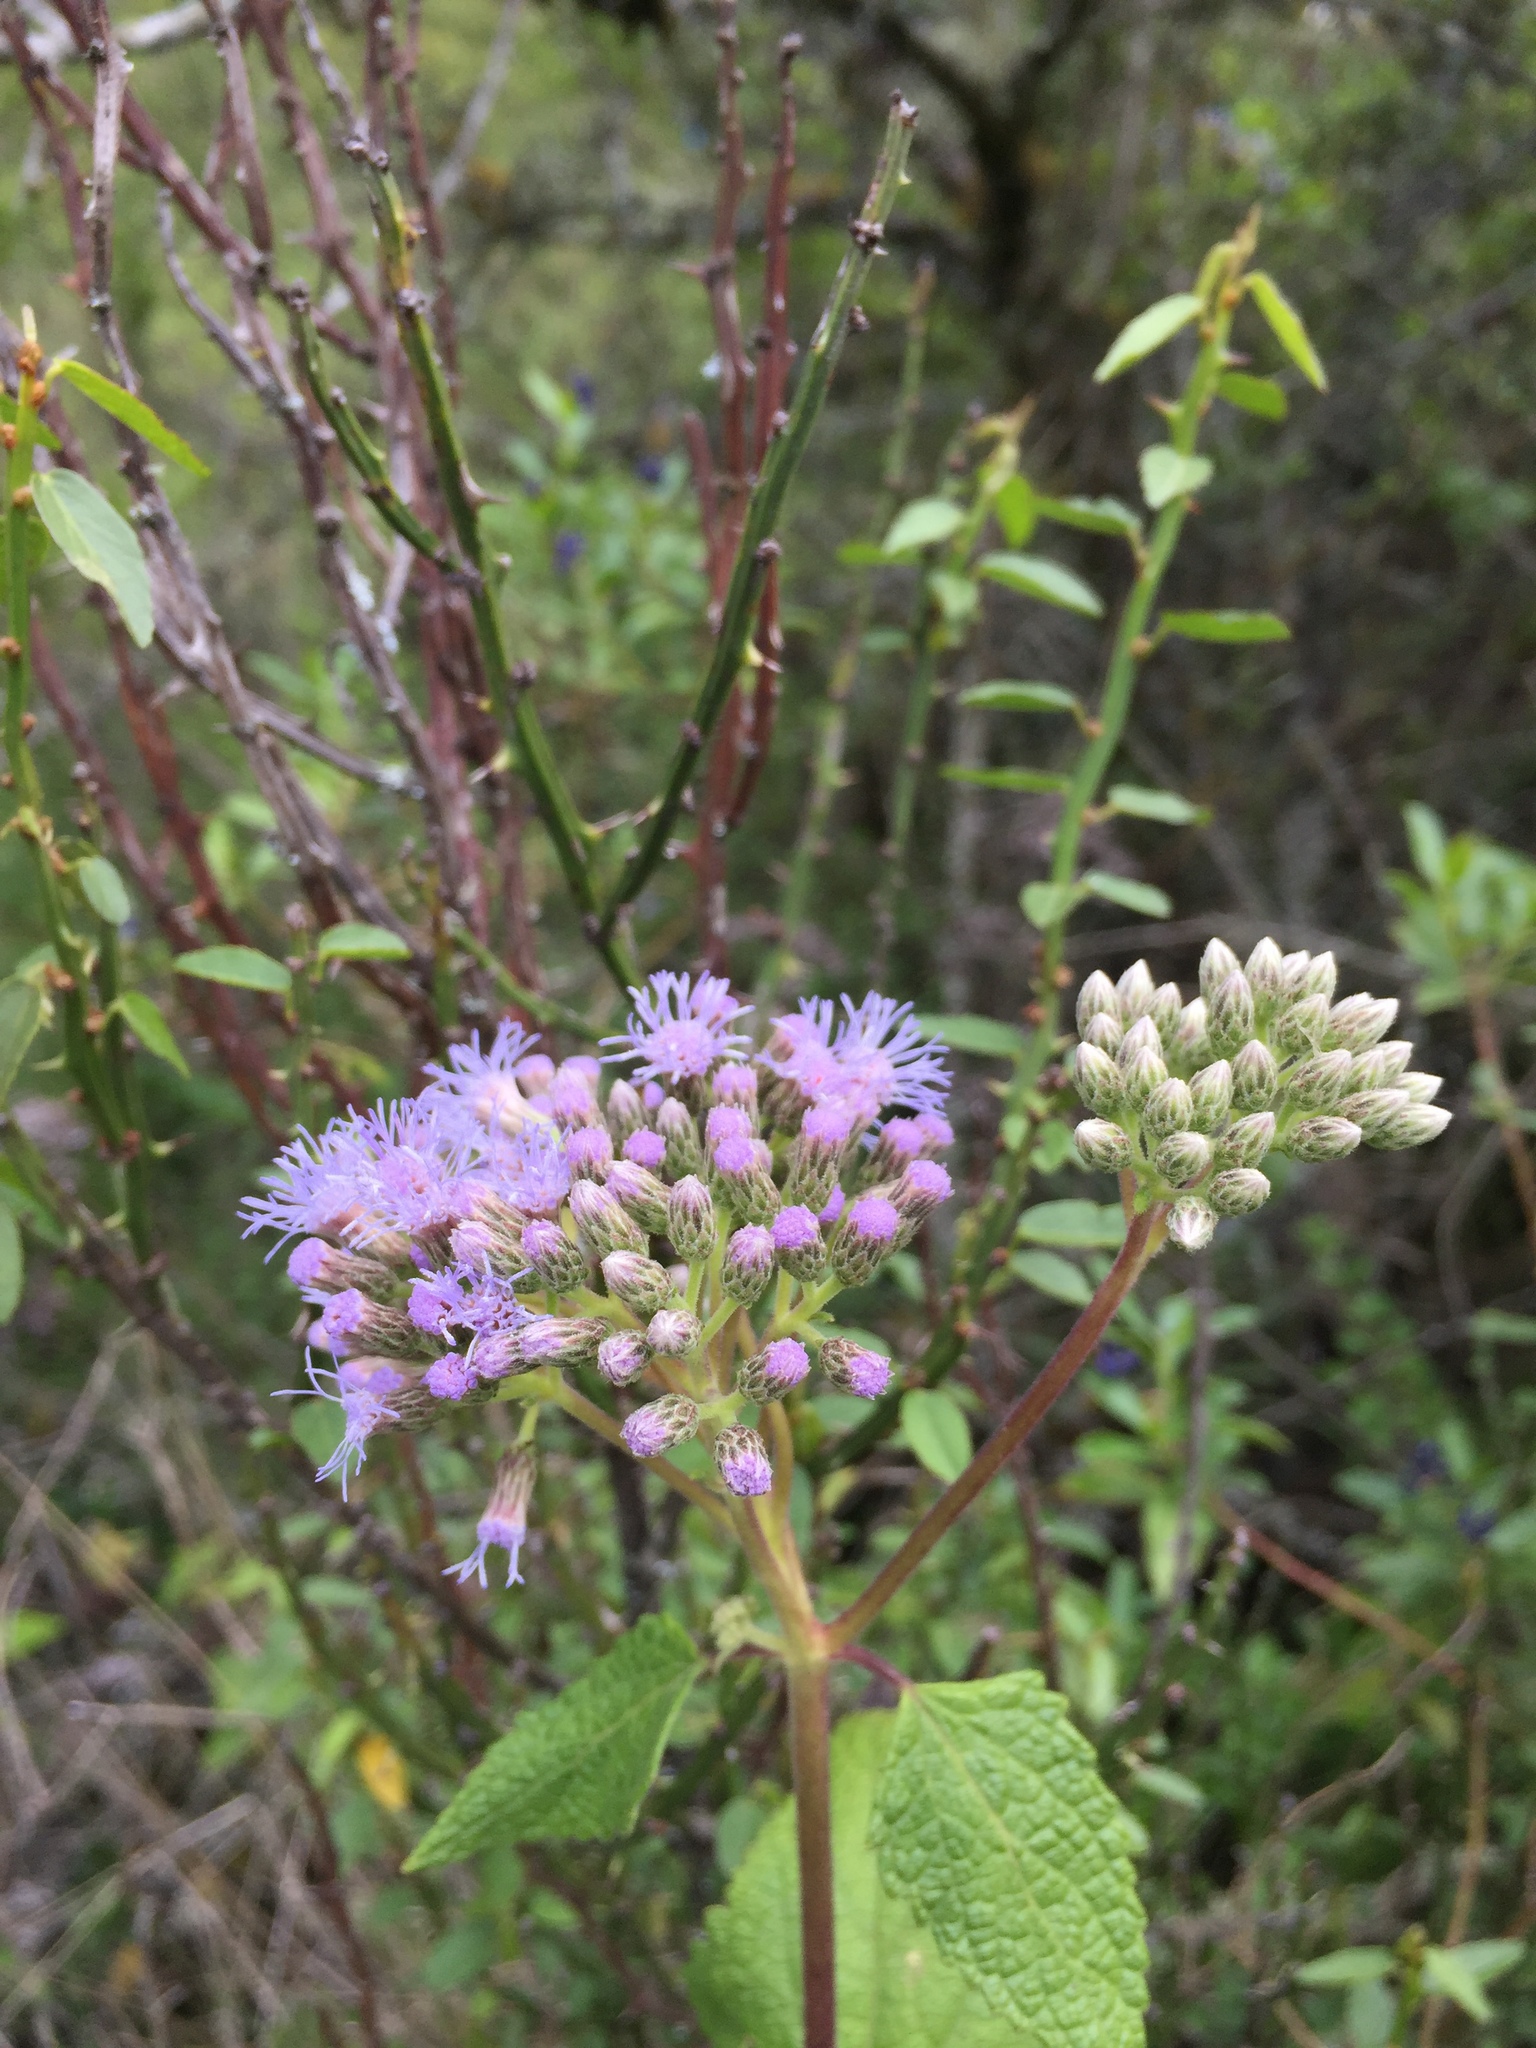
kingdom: Plantae
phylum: Tracheophyta
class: Magnoliopsida
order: Asterales
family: Asteraceae
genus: Aristeguietia
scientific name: Aristeguietia lamiifolia
